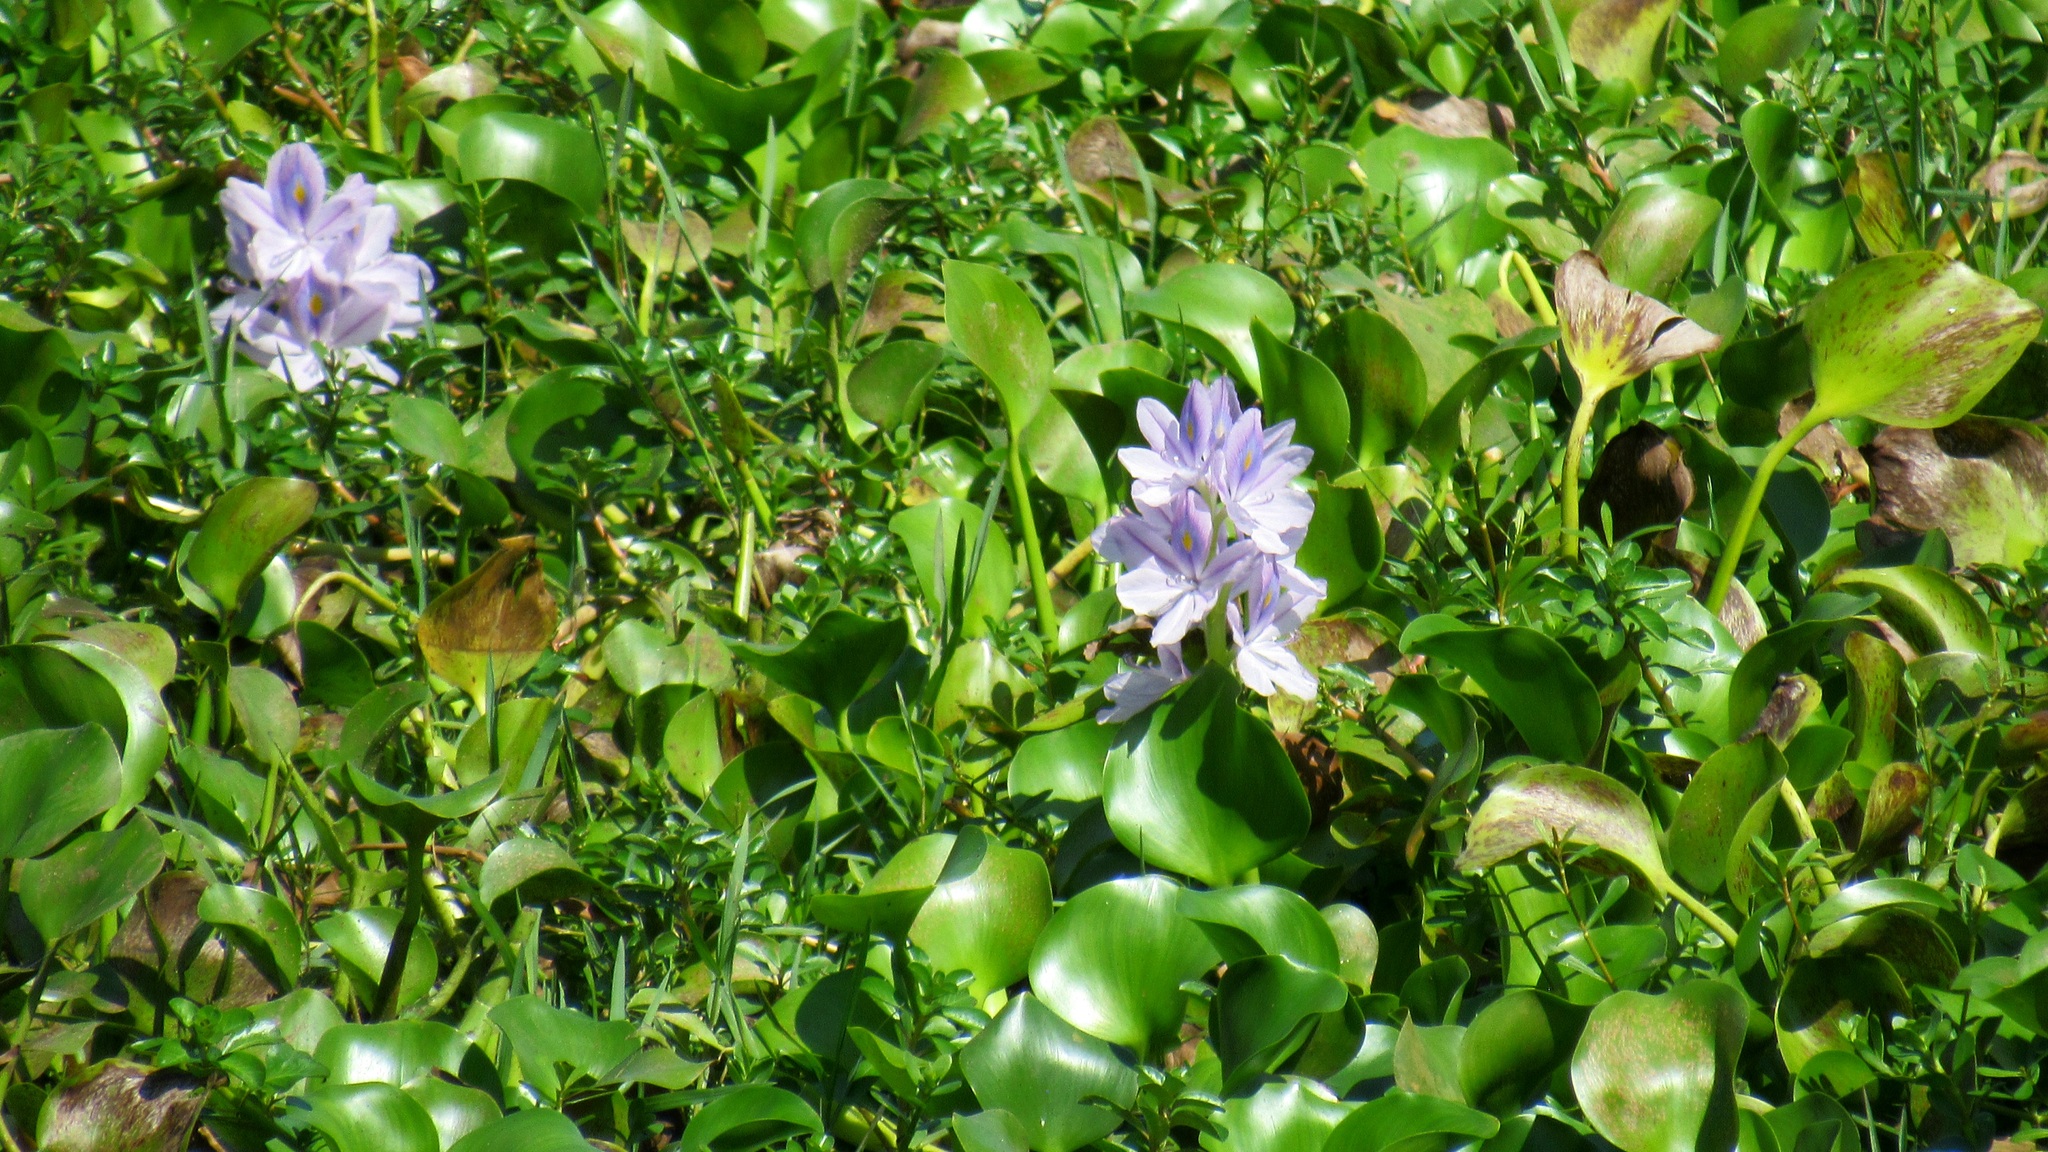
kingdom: Plantae
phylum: Tracheophyta
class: Liliopsida
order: Commelinales
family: Pontederiaceae
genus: Pontederia
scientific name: Pontederia crassipes
